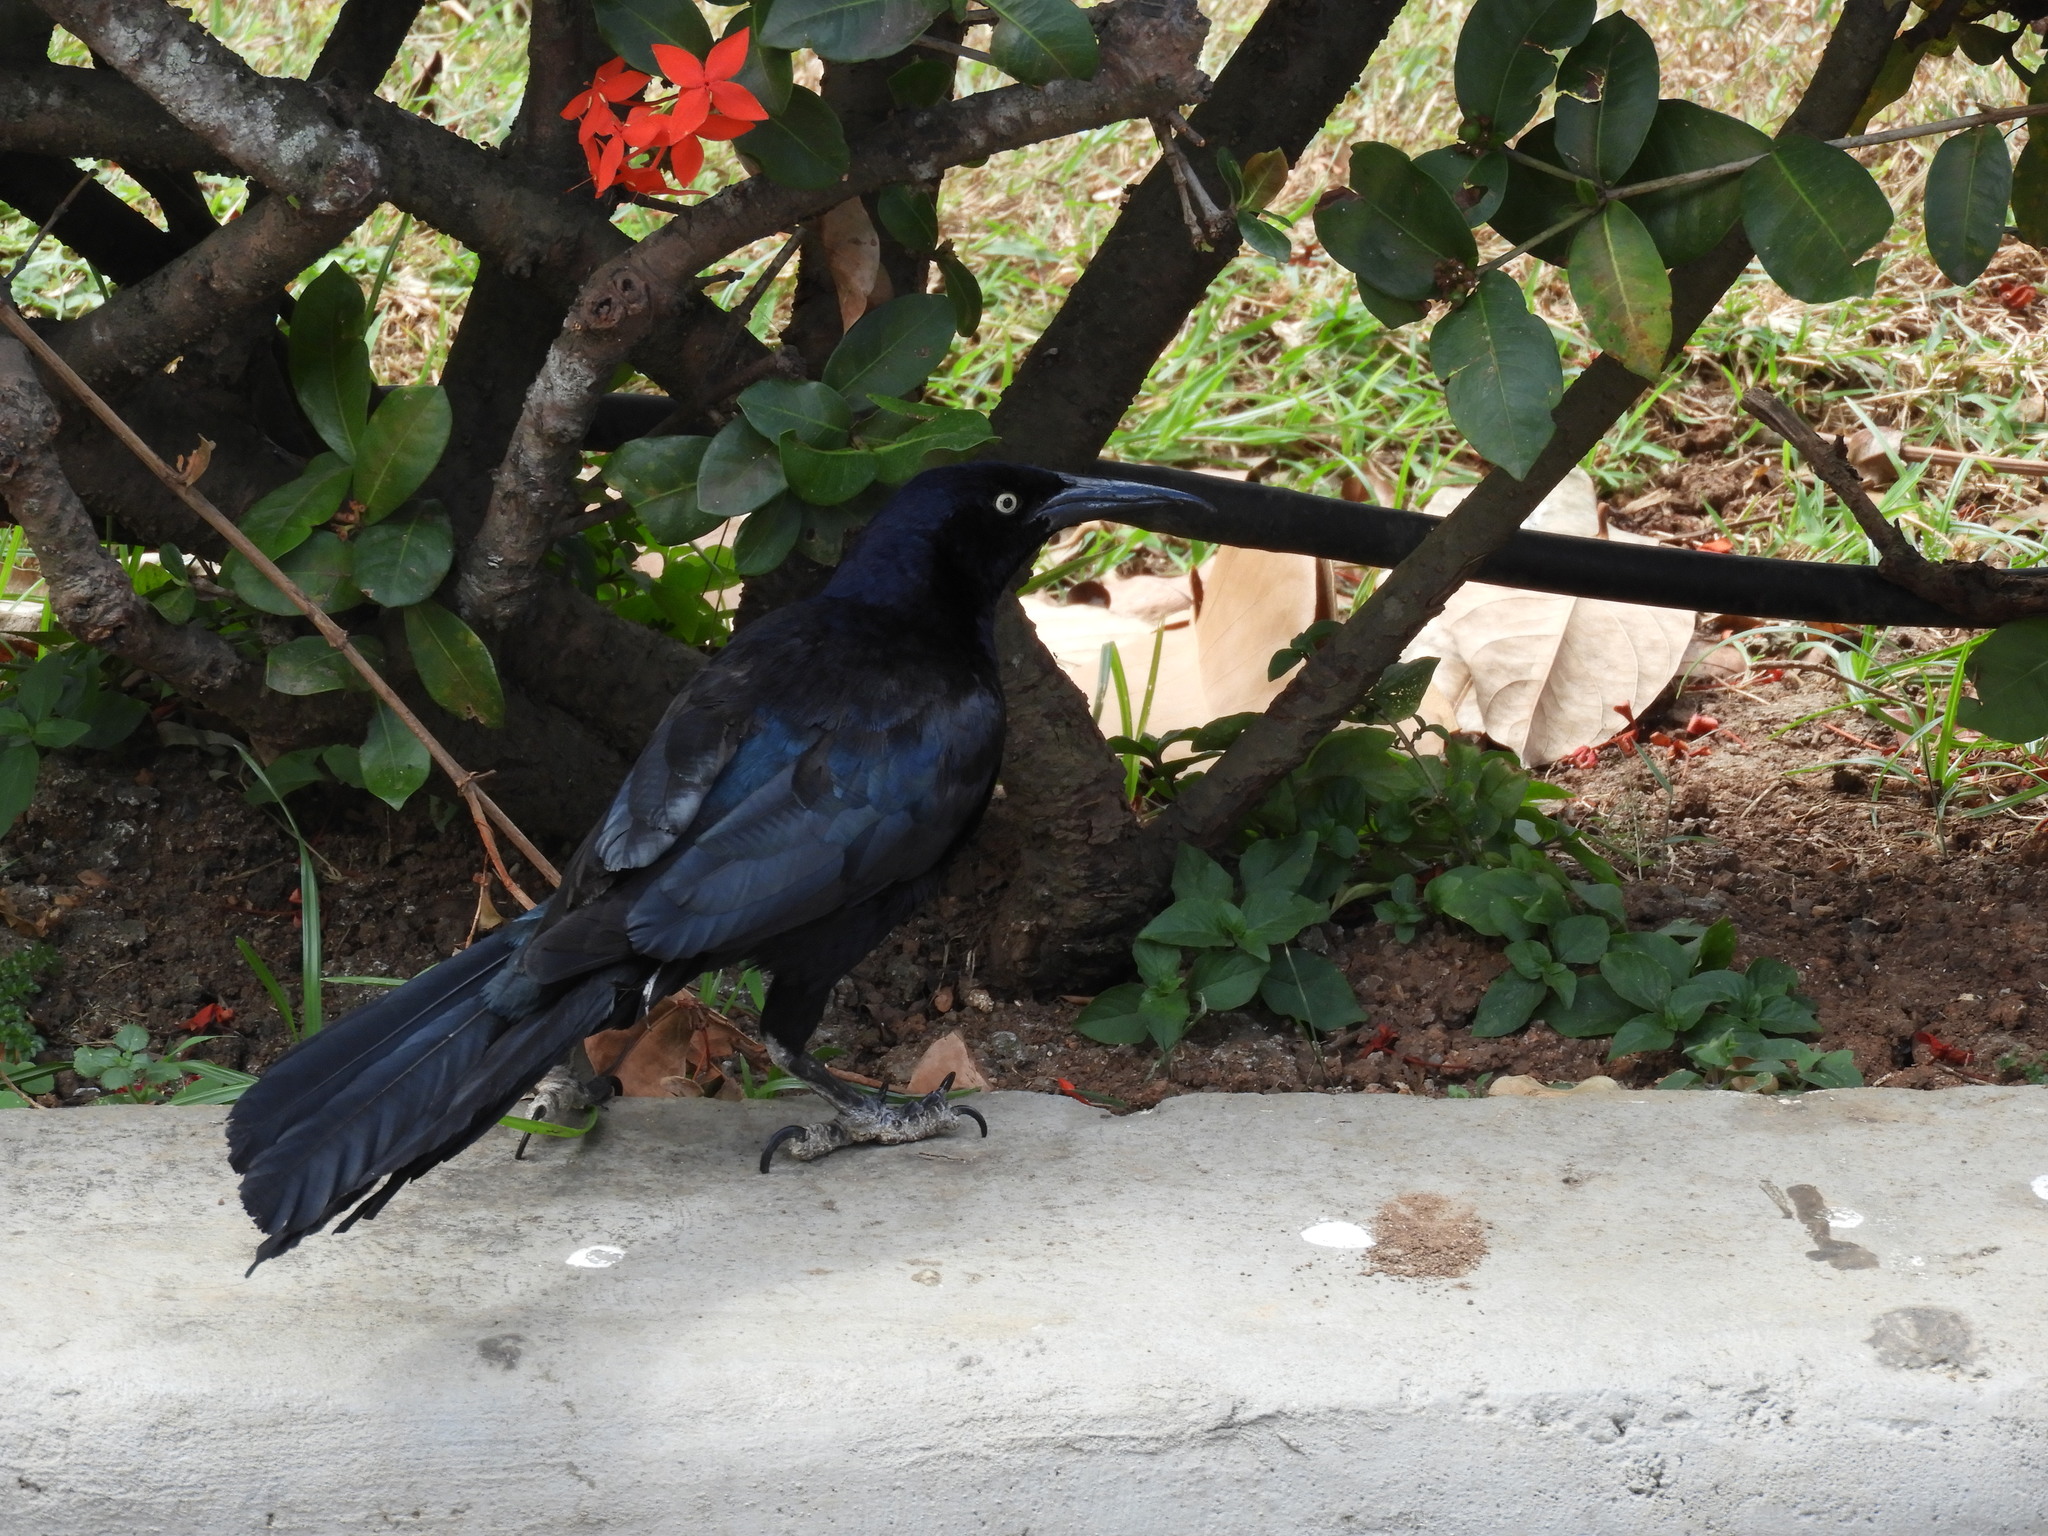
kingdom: Animalia
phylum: Chordata
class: Aves
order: Passeriformes
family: Icteridae
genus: Quiscalus
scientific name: Quiscalus mexicanus
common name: Great-tailed grackle
